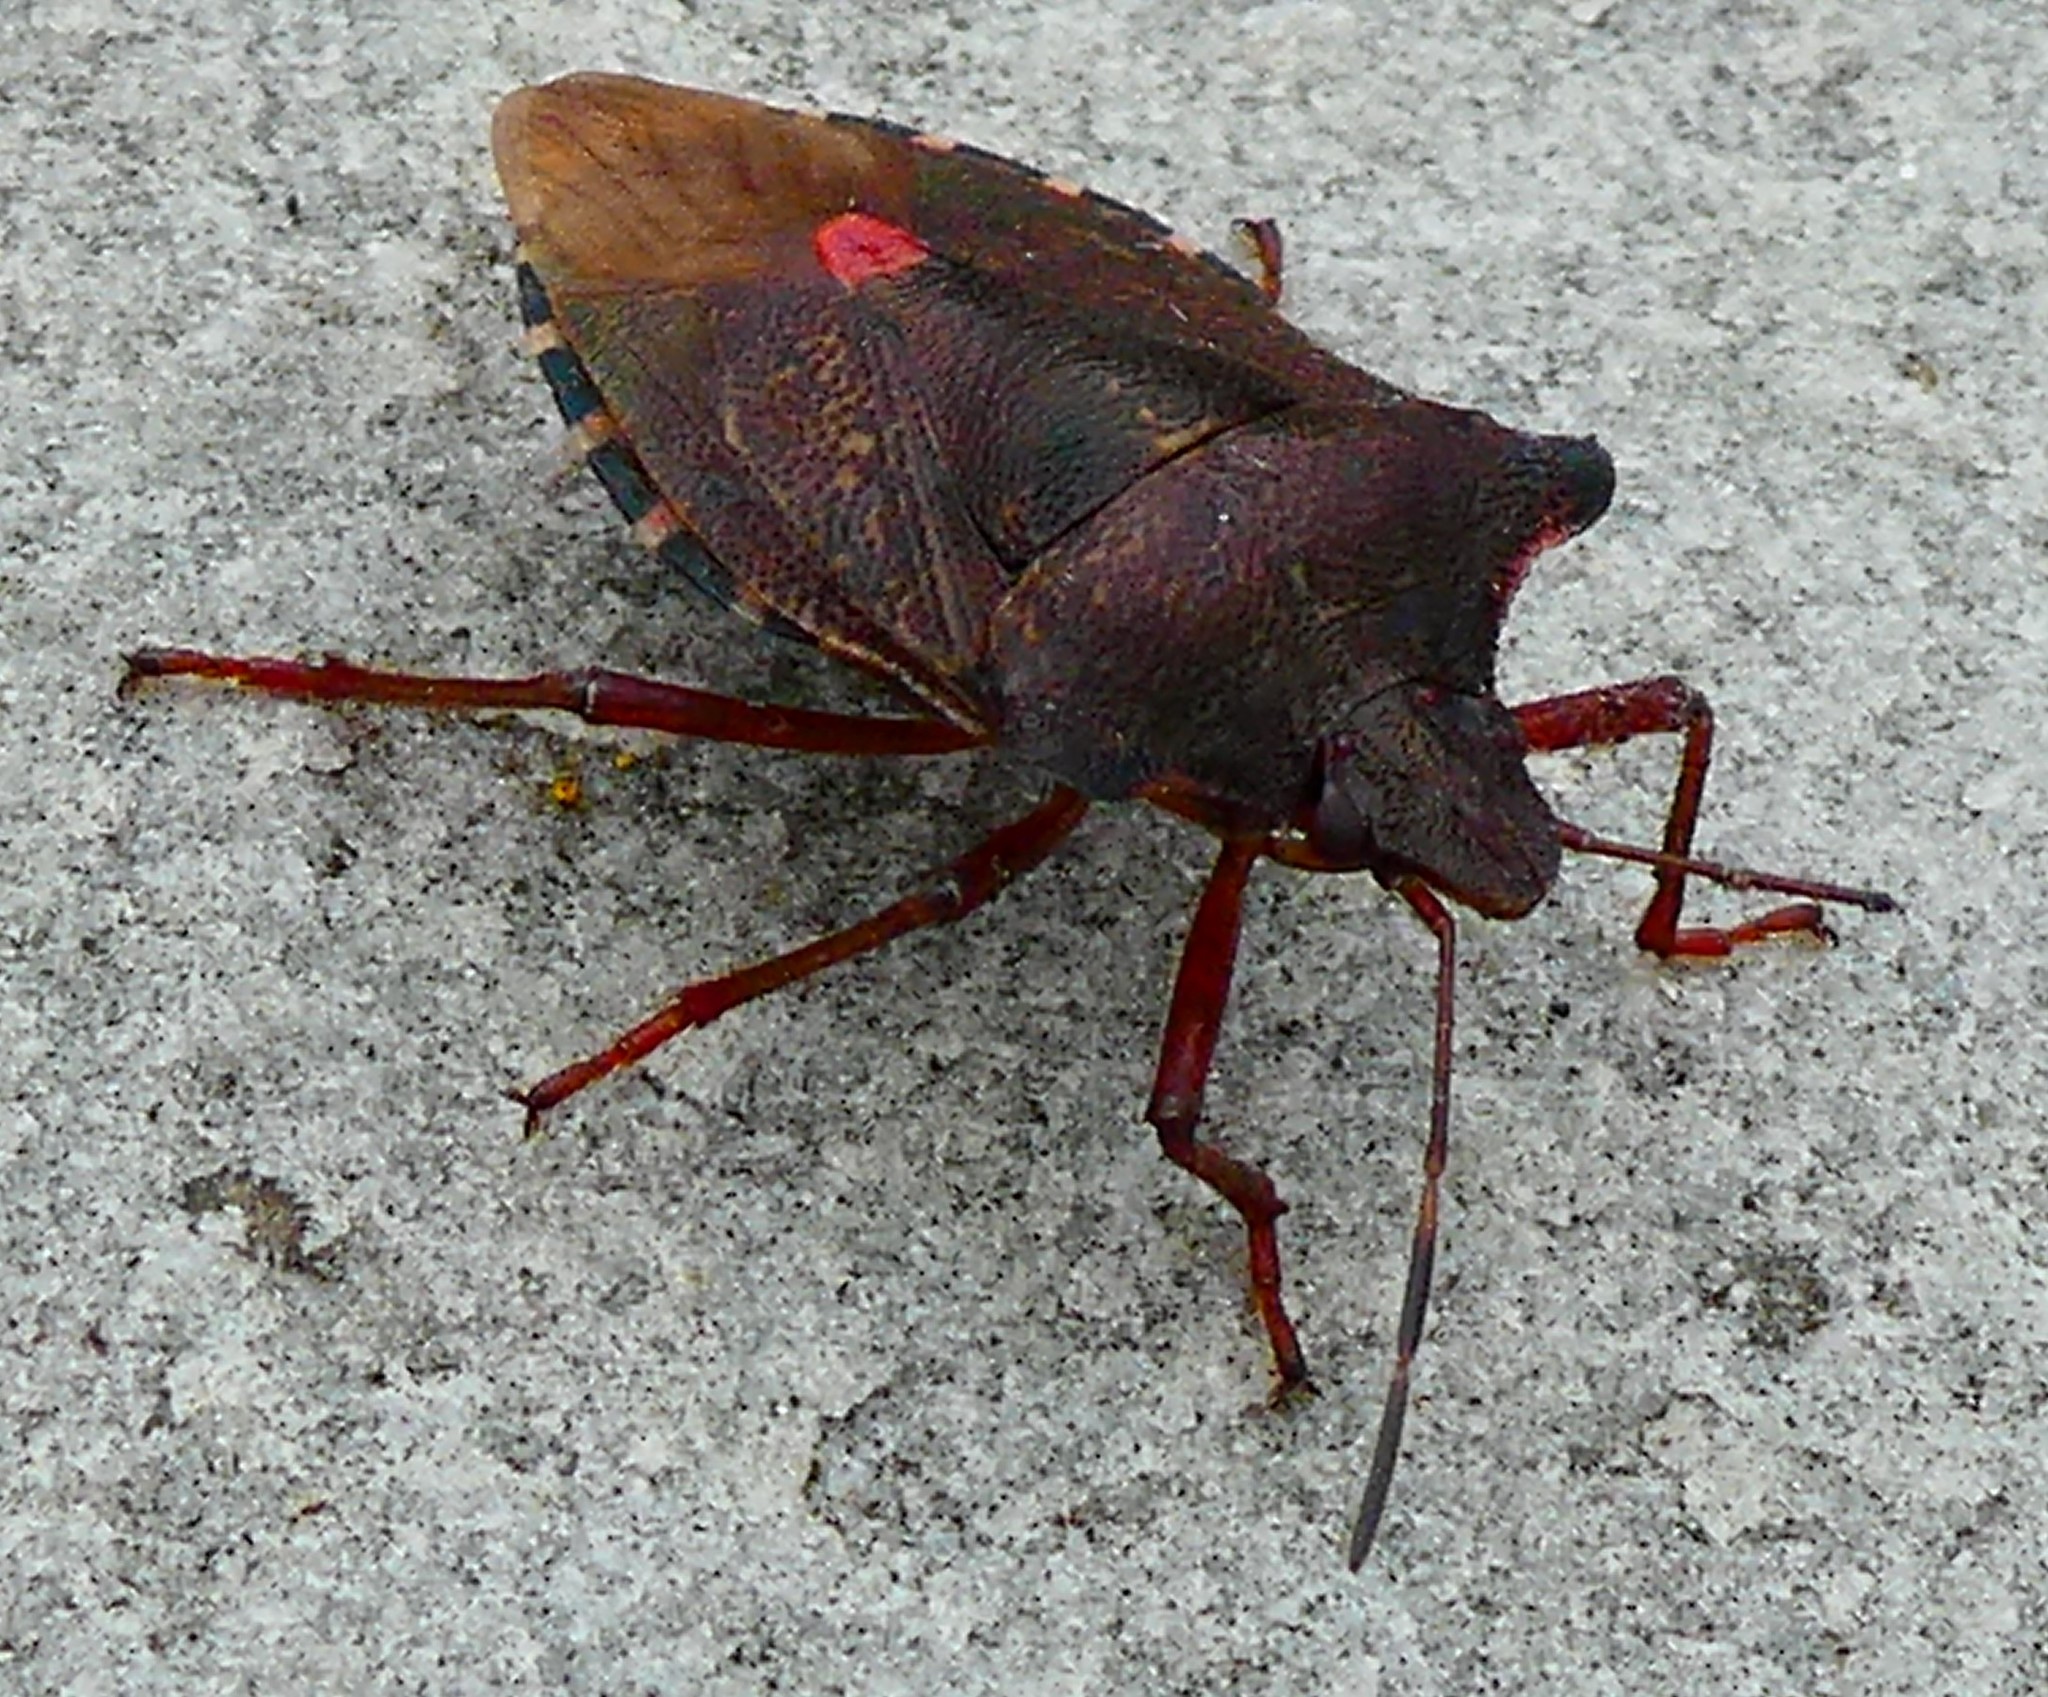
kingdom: Animalia
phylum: Arthropoda
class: Insecta
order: Hemiptera
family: Pentatomidae
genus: Pentatoma
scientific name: Pentatoma rufipes
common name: Forest bug
